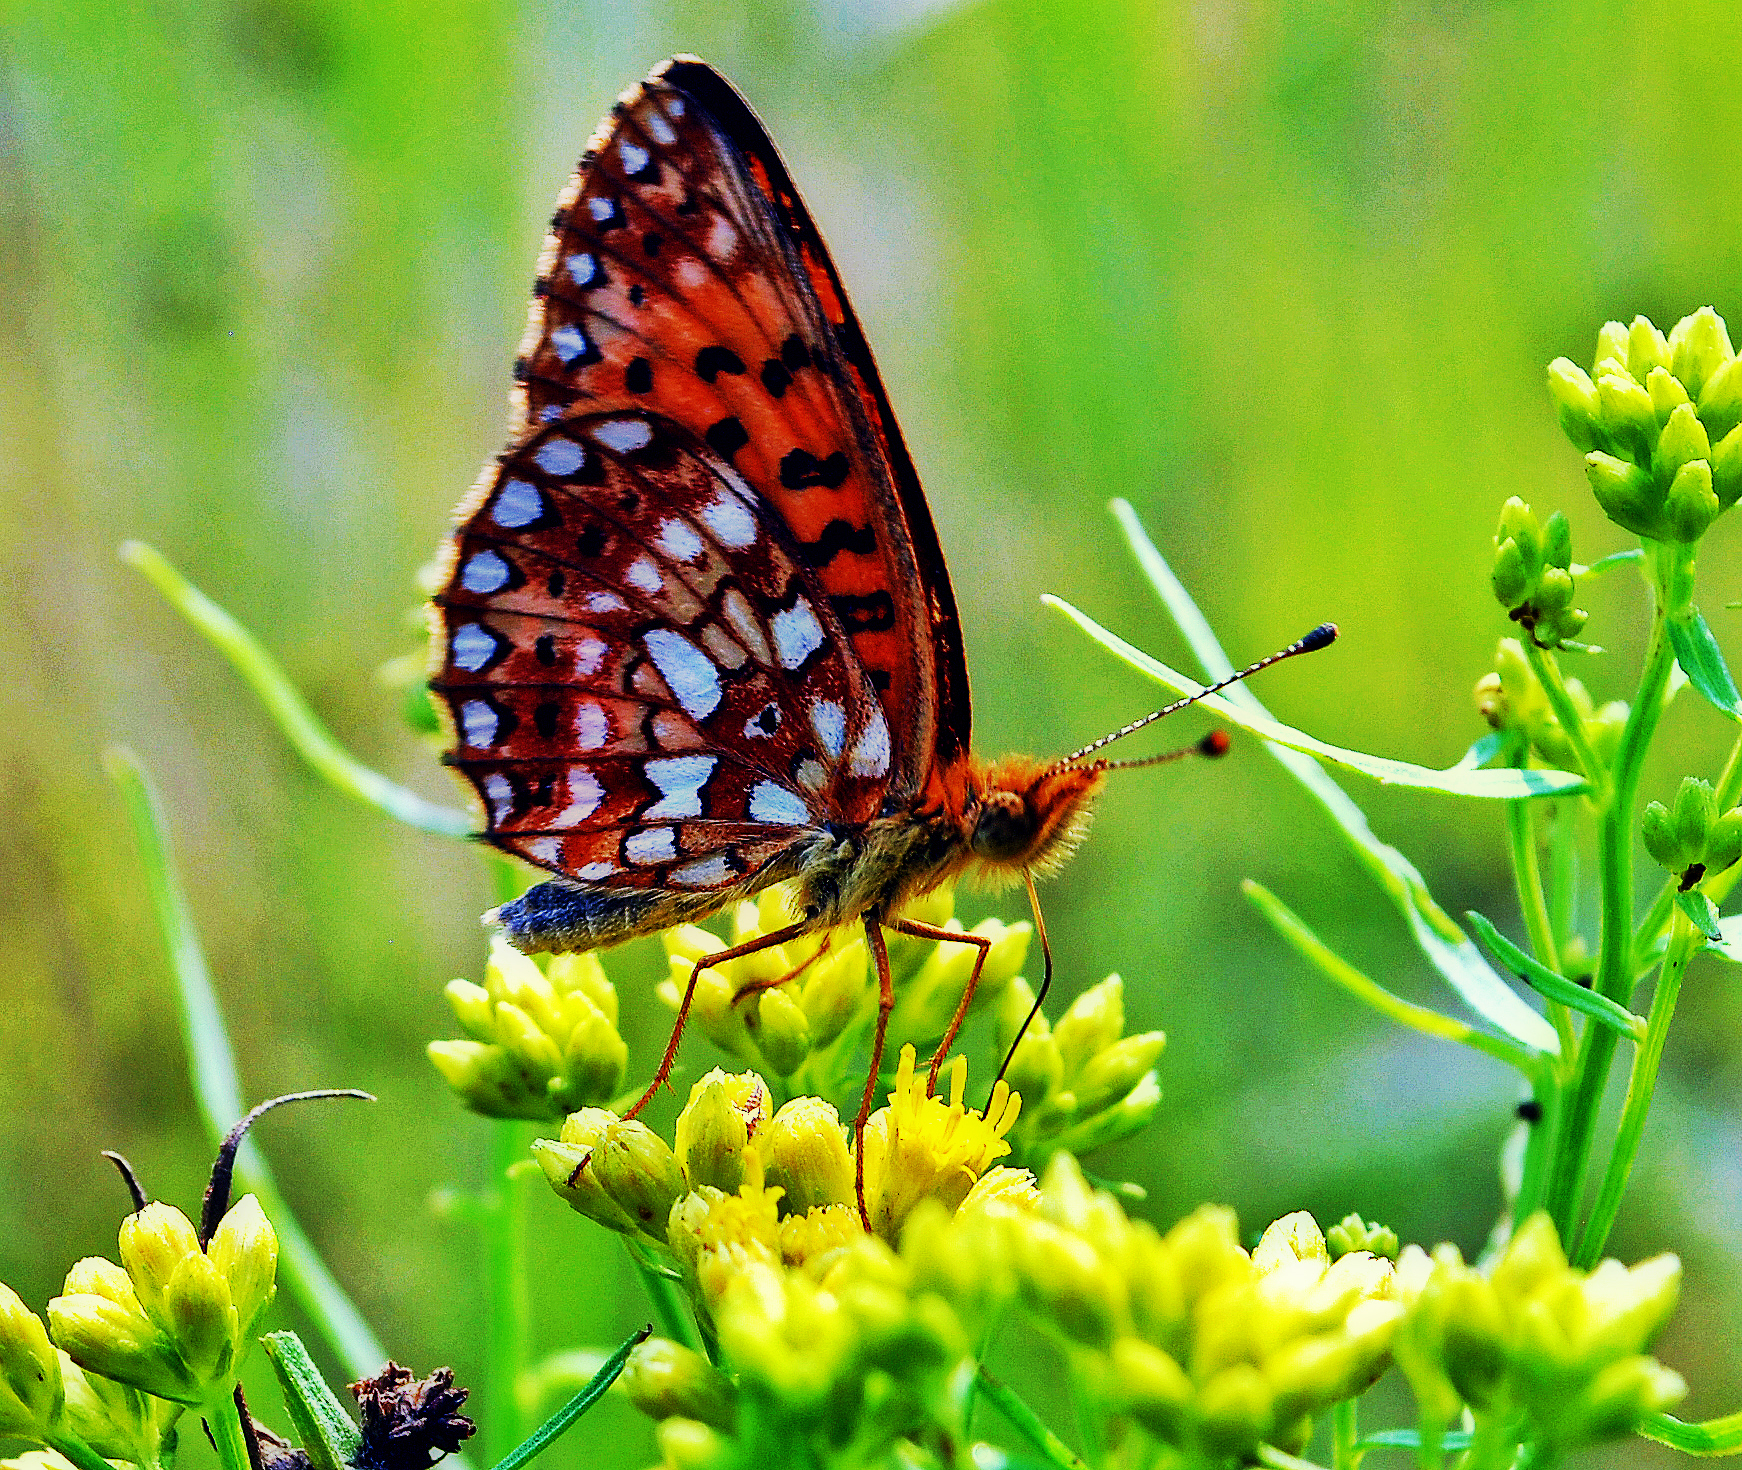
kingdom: Animalia
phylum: Arthropoda
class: Insecta
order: Lepidoptera
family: Nymphalidae
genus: Boloria
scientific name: Boloria
